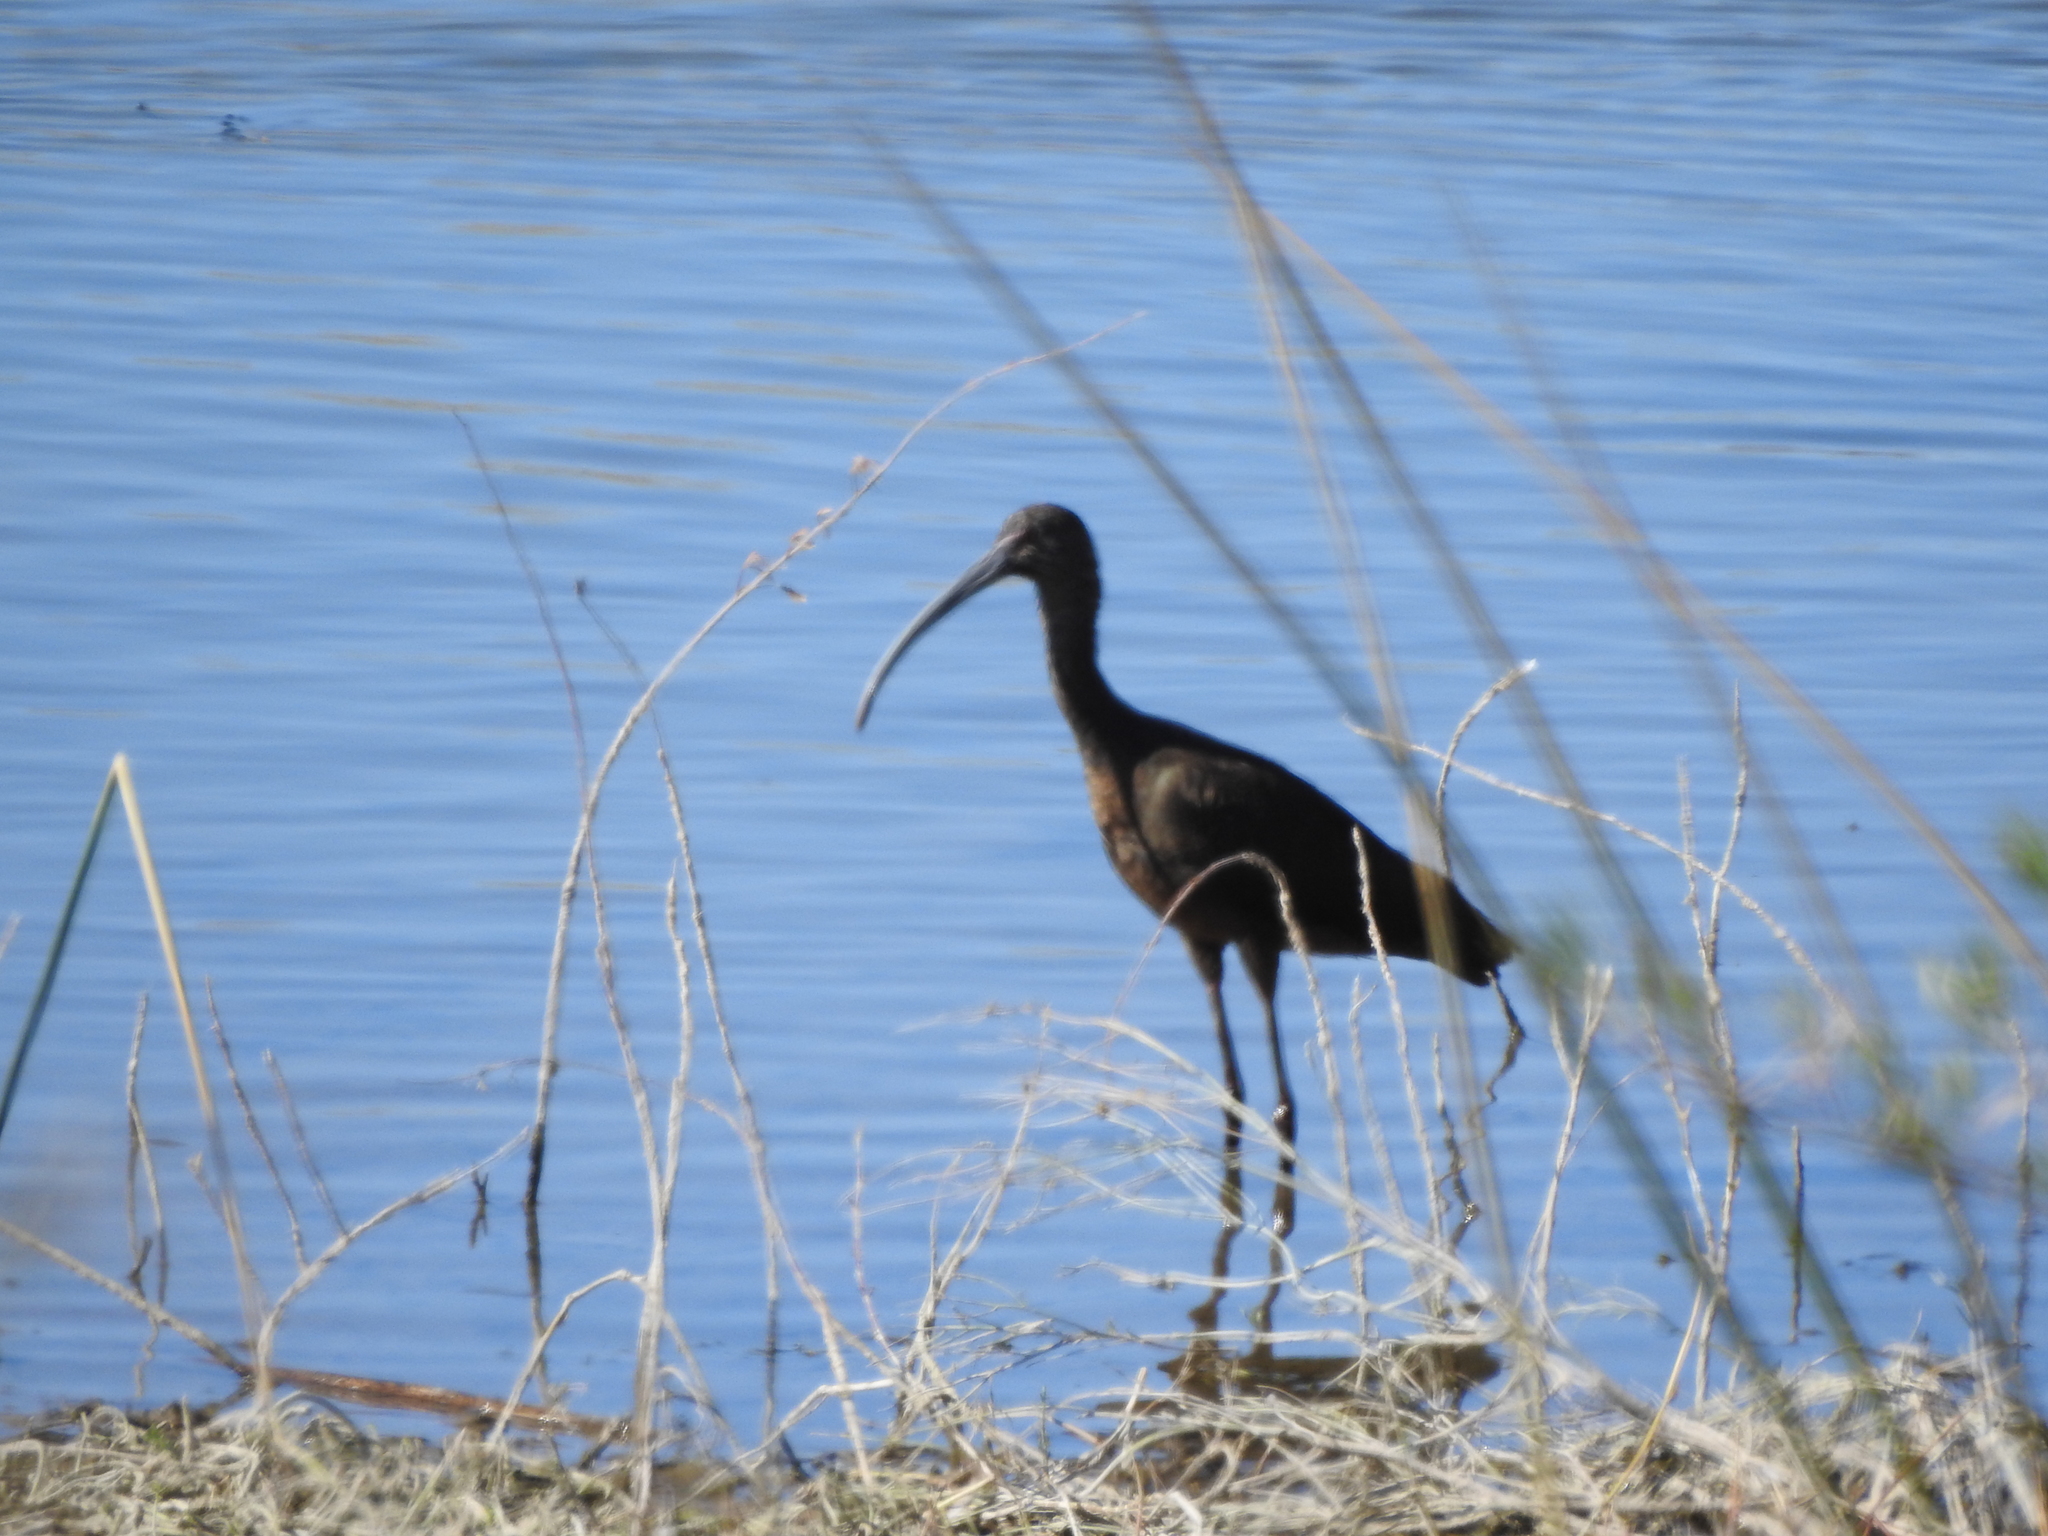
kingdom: Animalia
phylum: Chordata
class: Aves
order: Pelecaniformes
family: Threskiornithidae
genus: Plegadis
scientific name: Plegadis chihi
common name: White-faced ibis
